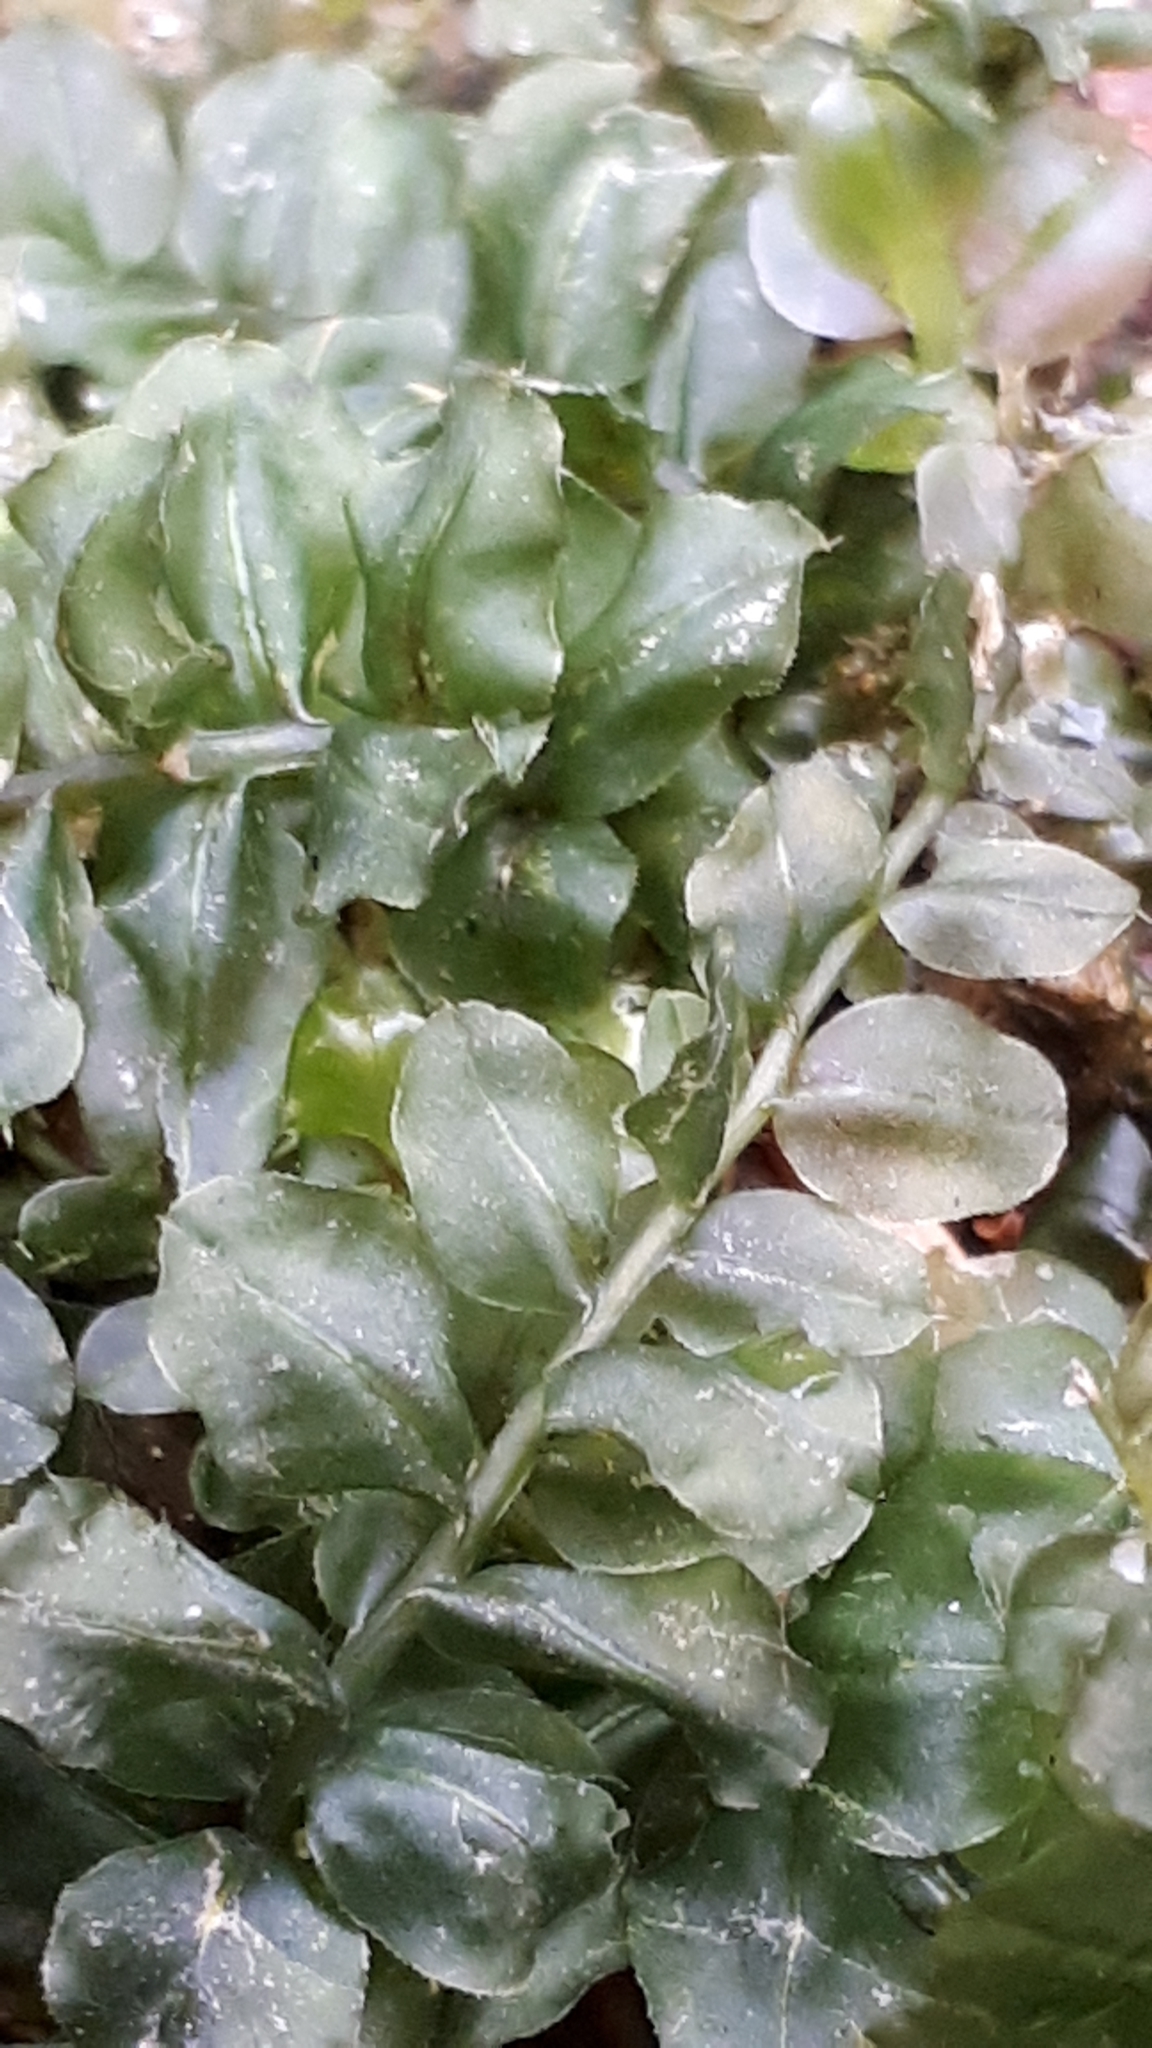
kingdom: Plantae
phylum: Bryophyta
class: Bryopsida
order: Bryales
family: Mniaceae
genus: Plagiomnium
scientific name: Plagiomnium affine
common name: Many-fruited thyme-moss
